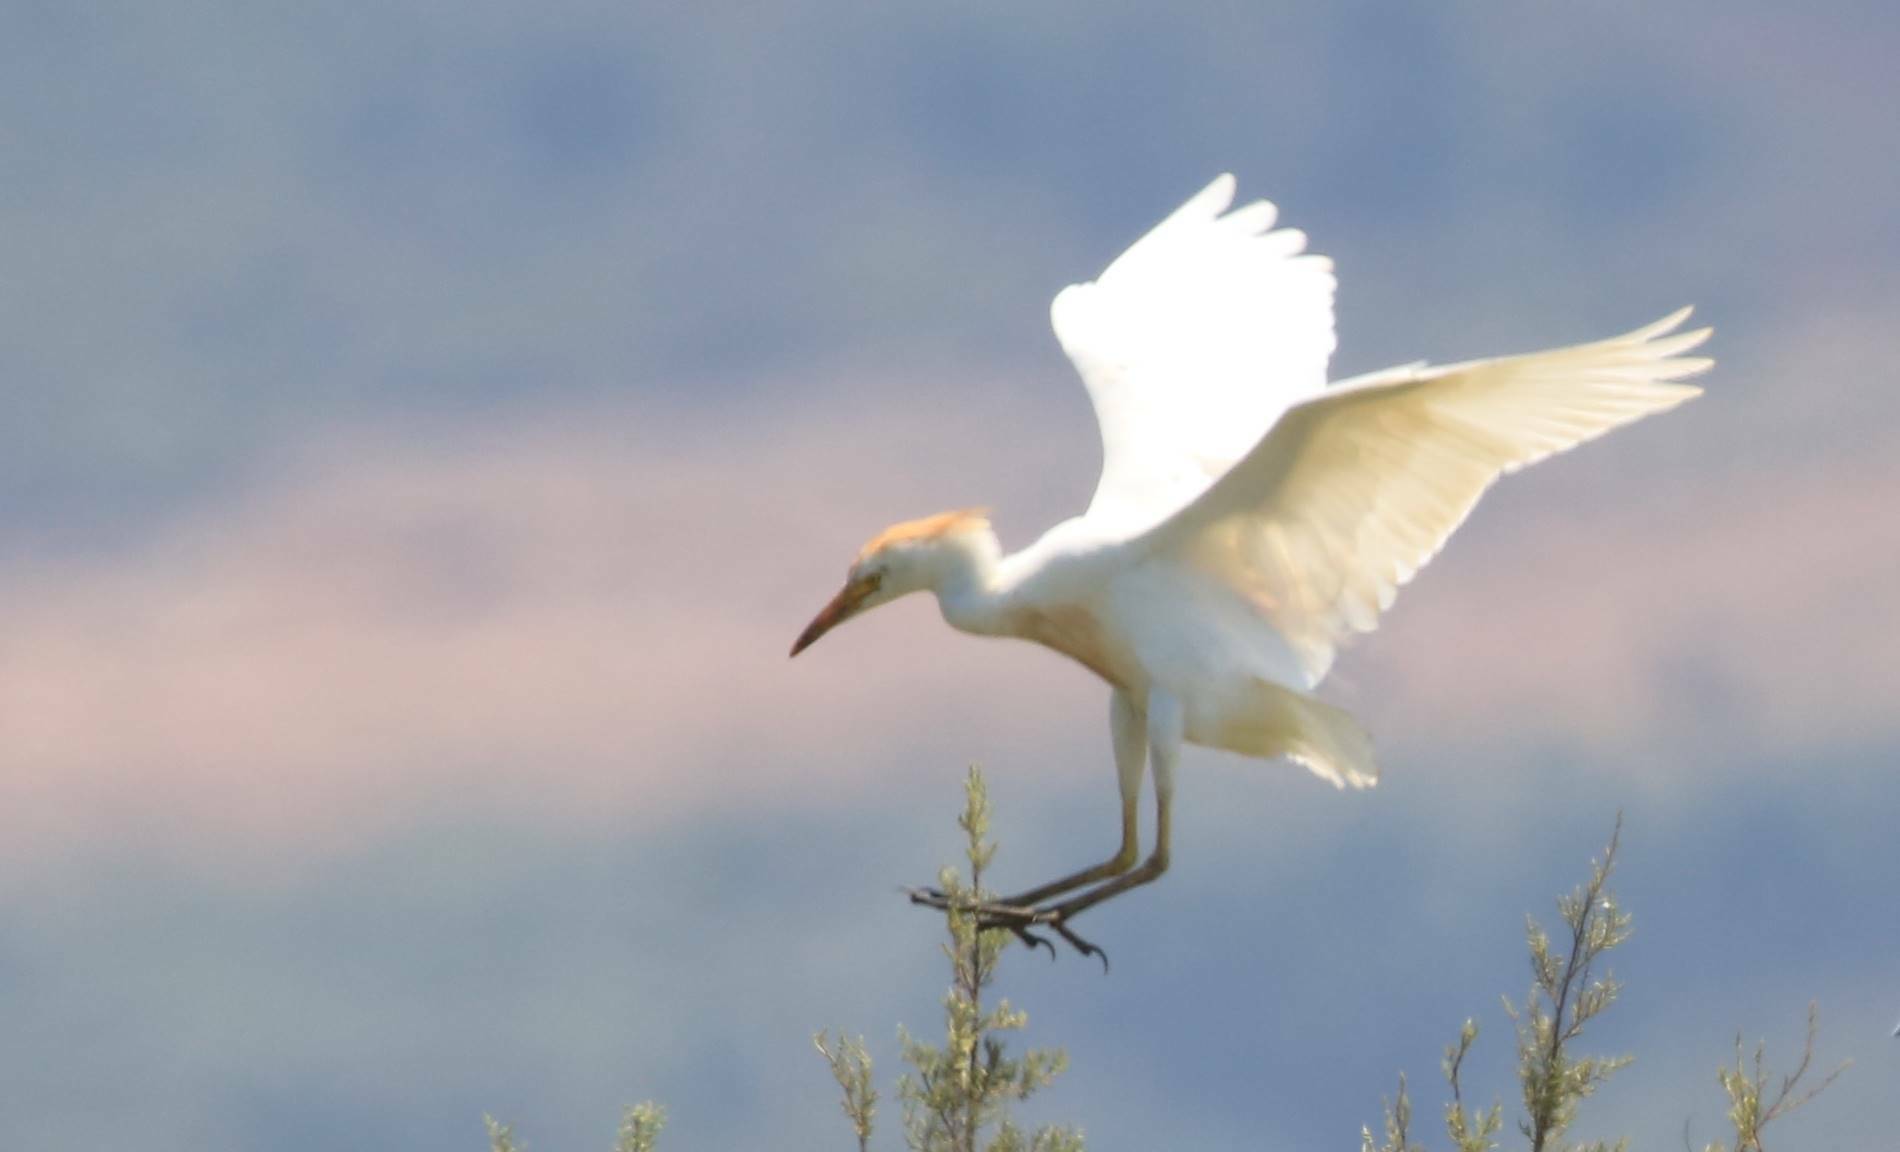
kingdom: Animalia
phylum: Chordata
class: Aves
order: Pelecaniformes
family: Ardeidae
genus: Bubulcus
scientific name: Bubulcus ibis
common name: Cattle egret
